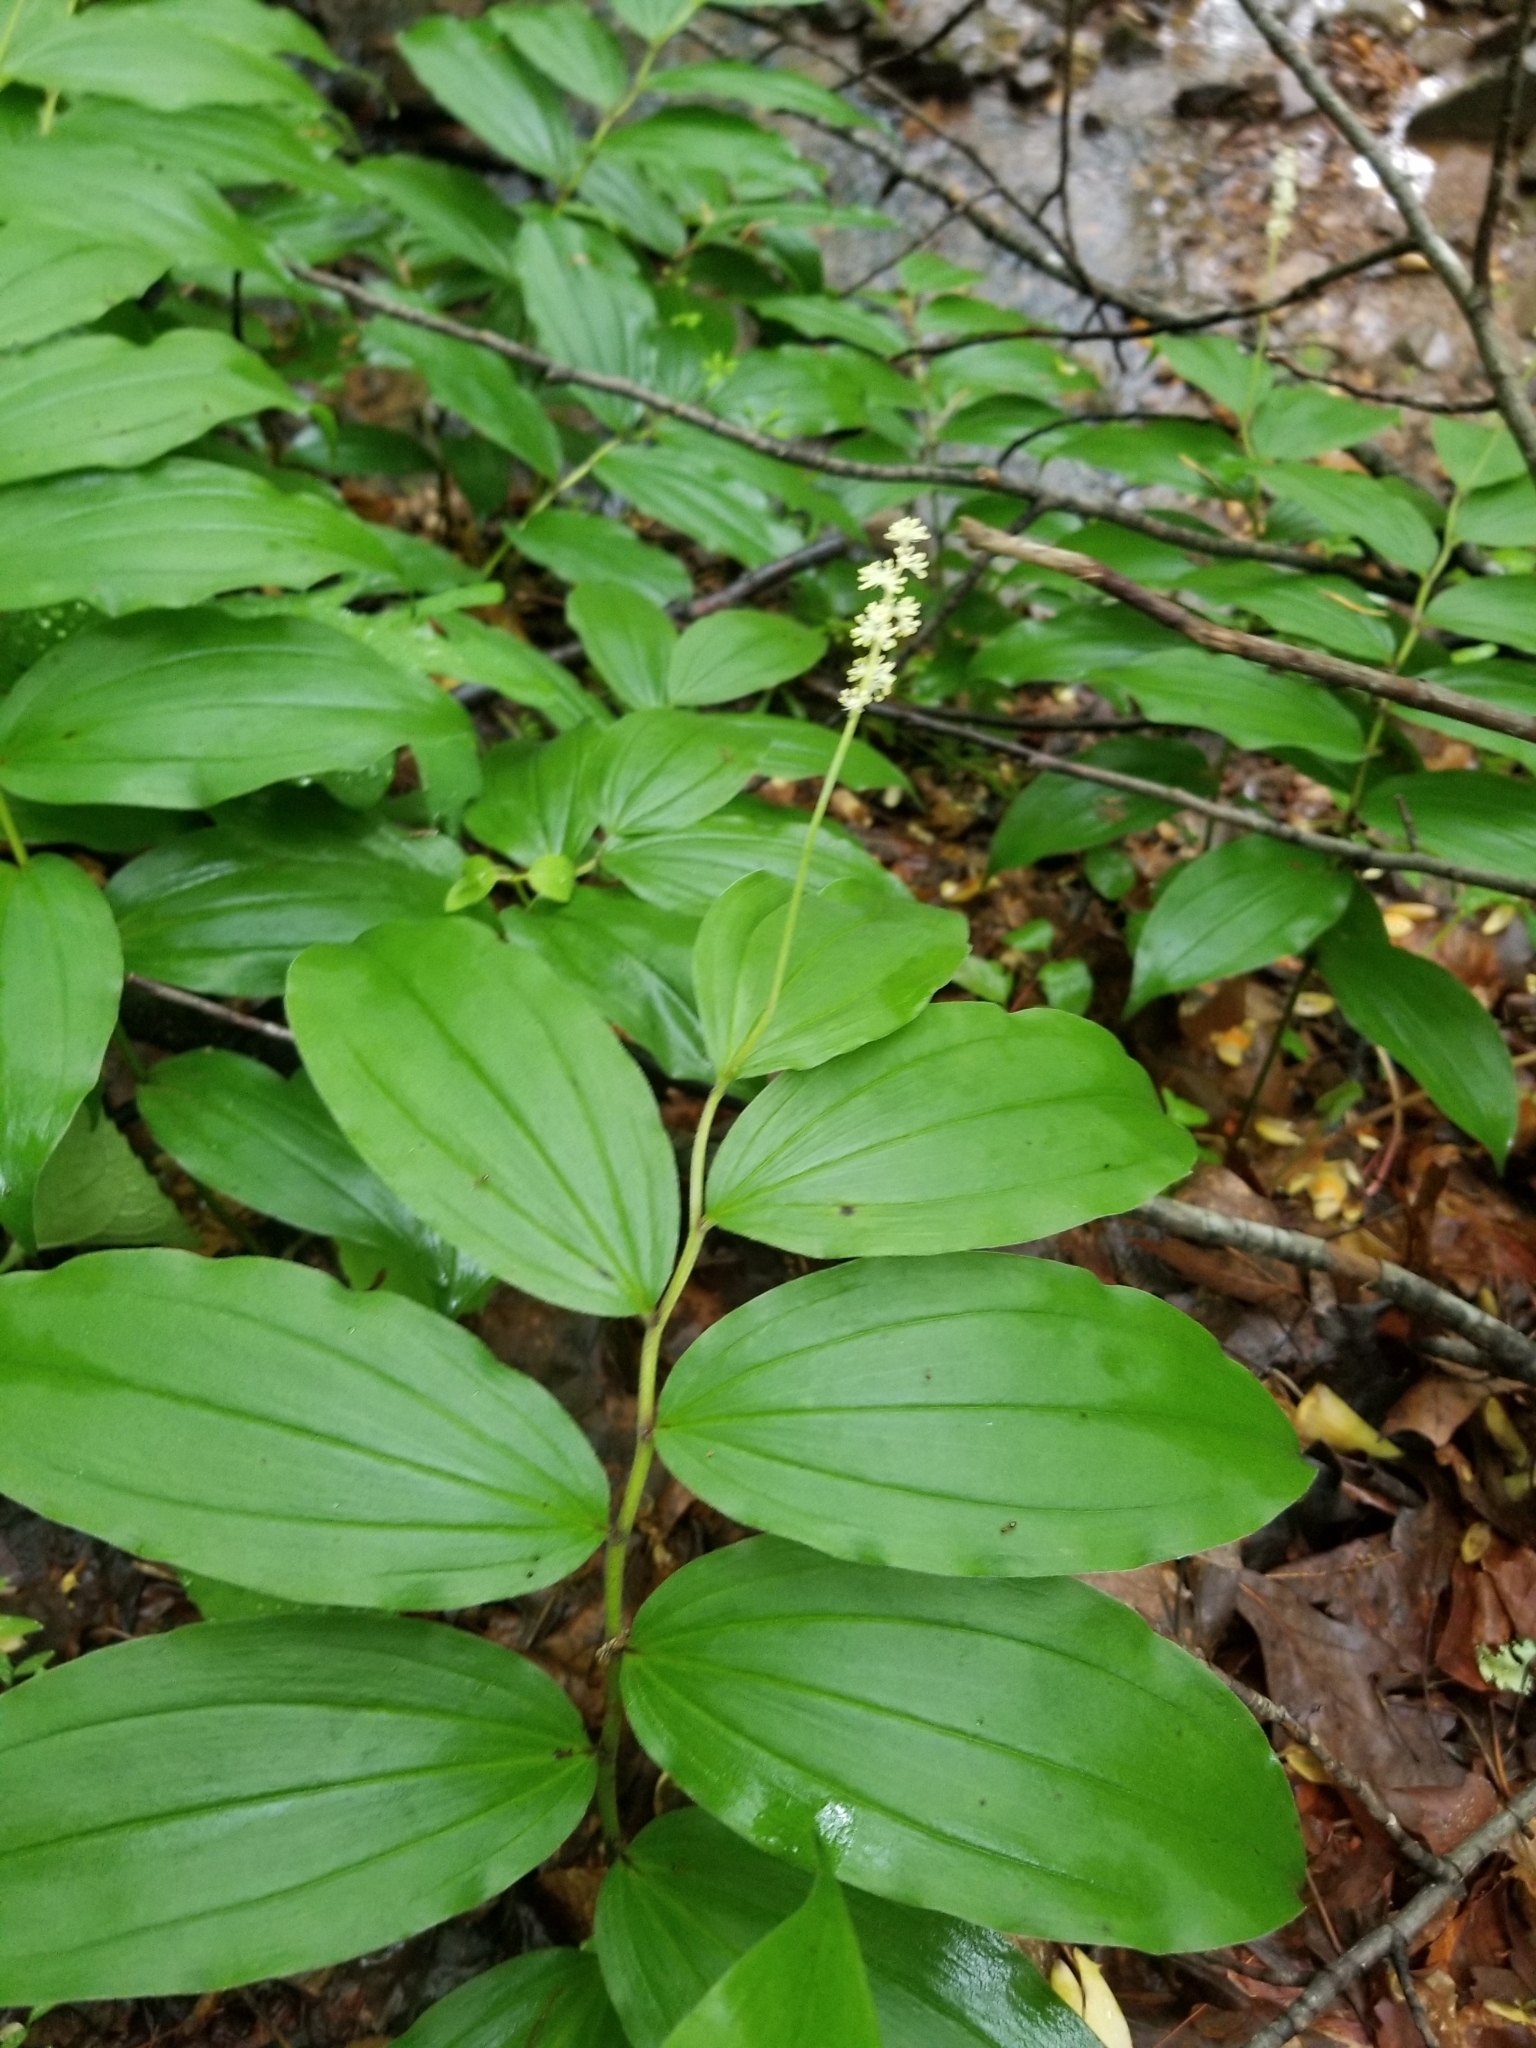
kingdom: Plantae
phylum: Tracheophyta
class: Liliopsida
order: Asparagales
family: Asparagaceae
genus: Maianthemum
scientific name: Maianthemum racemosum
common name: False spikenard
